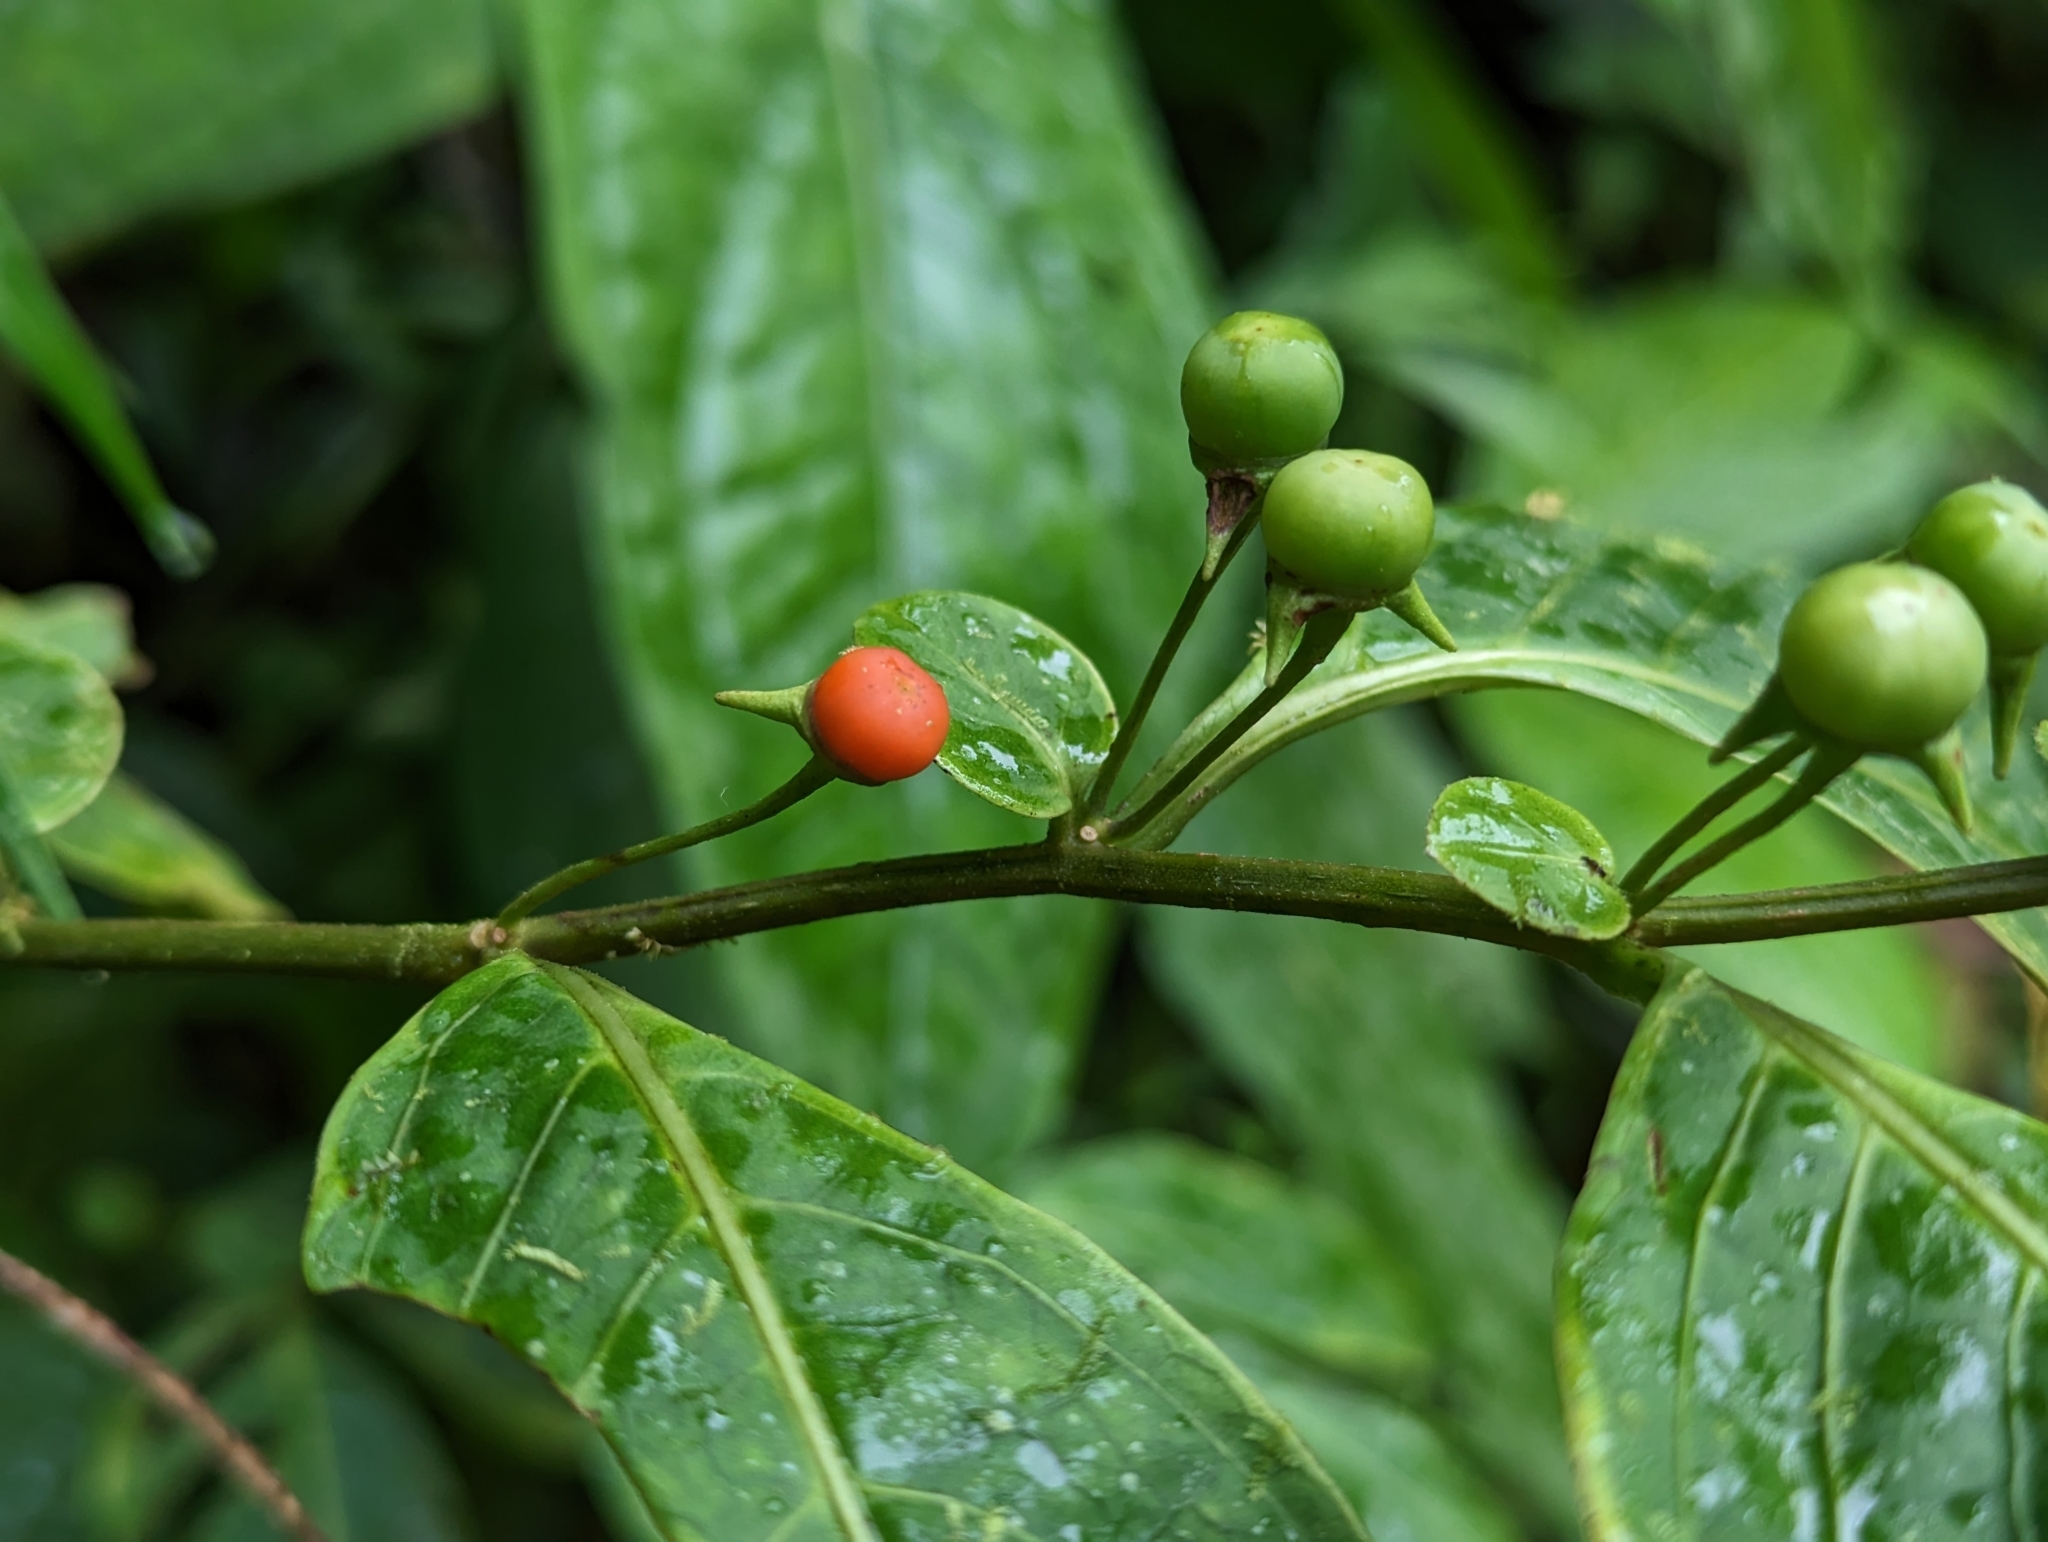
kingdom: Plantae
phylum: Tracheophyta
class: Magnoliopsida
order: Solanales
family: Solanaceae
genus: Capsicum
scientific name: Capsicum lycianthoides
